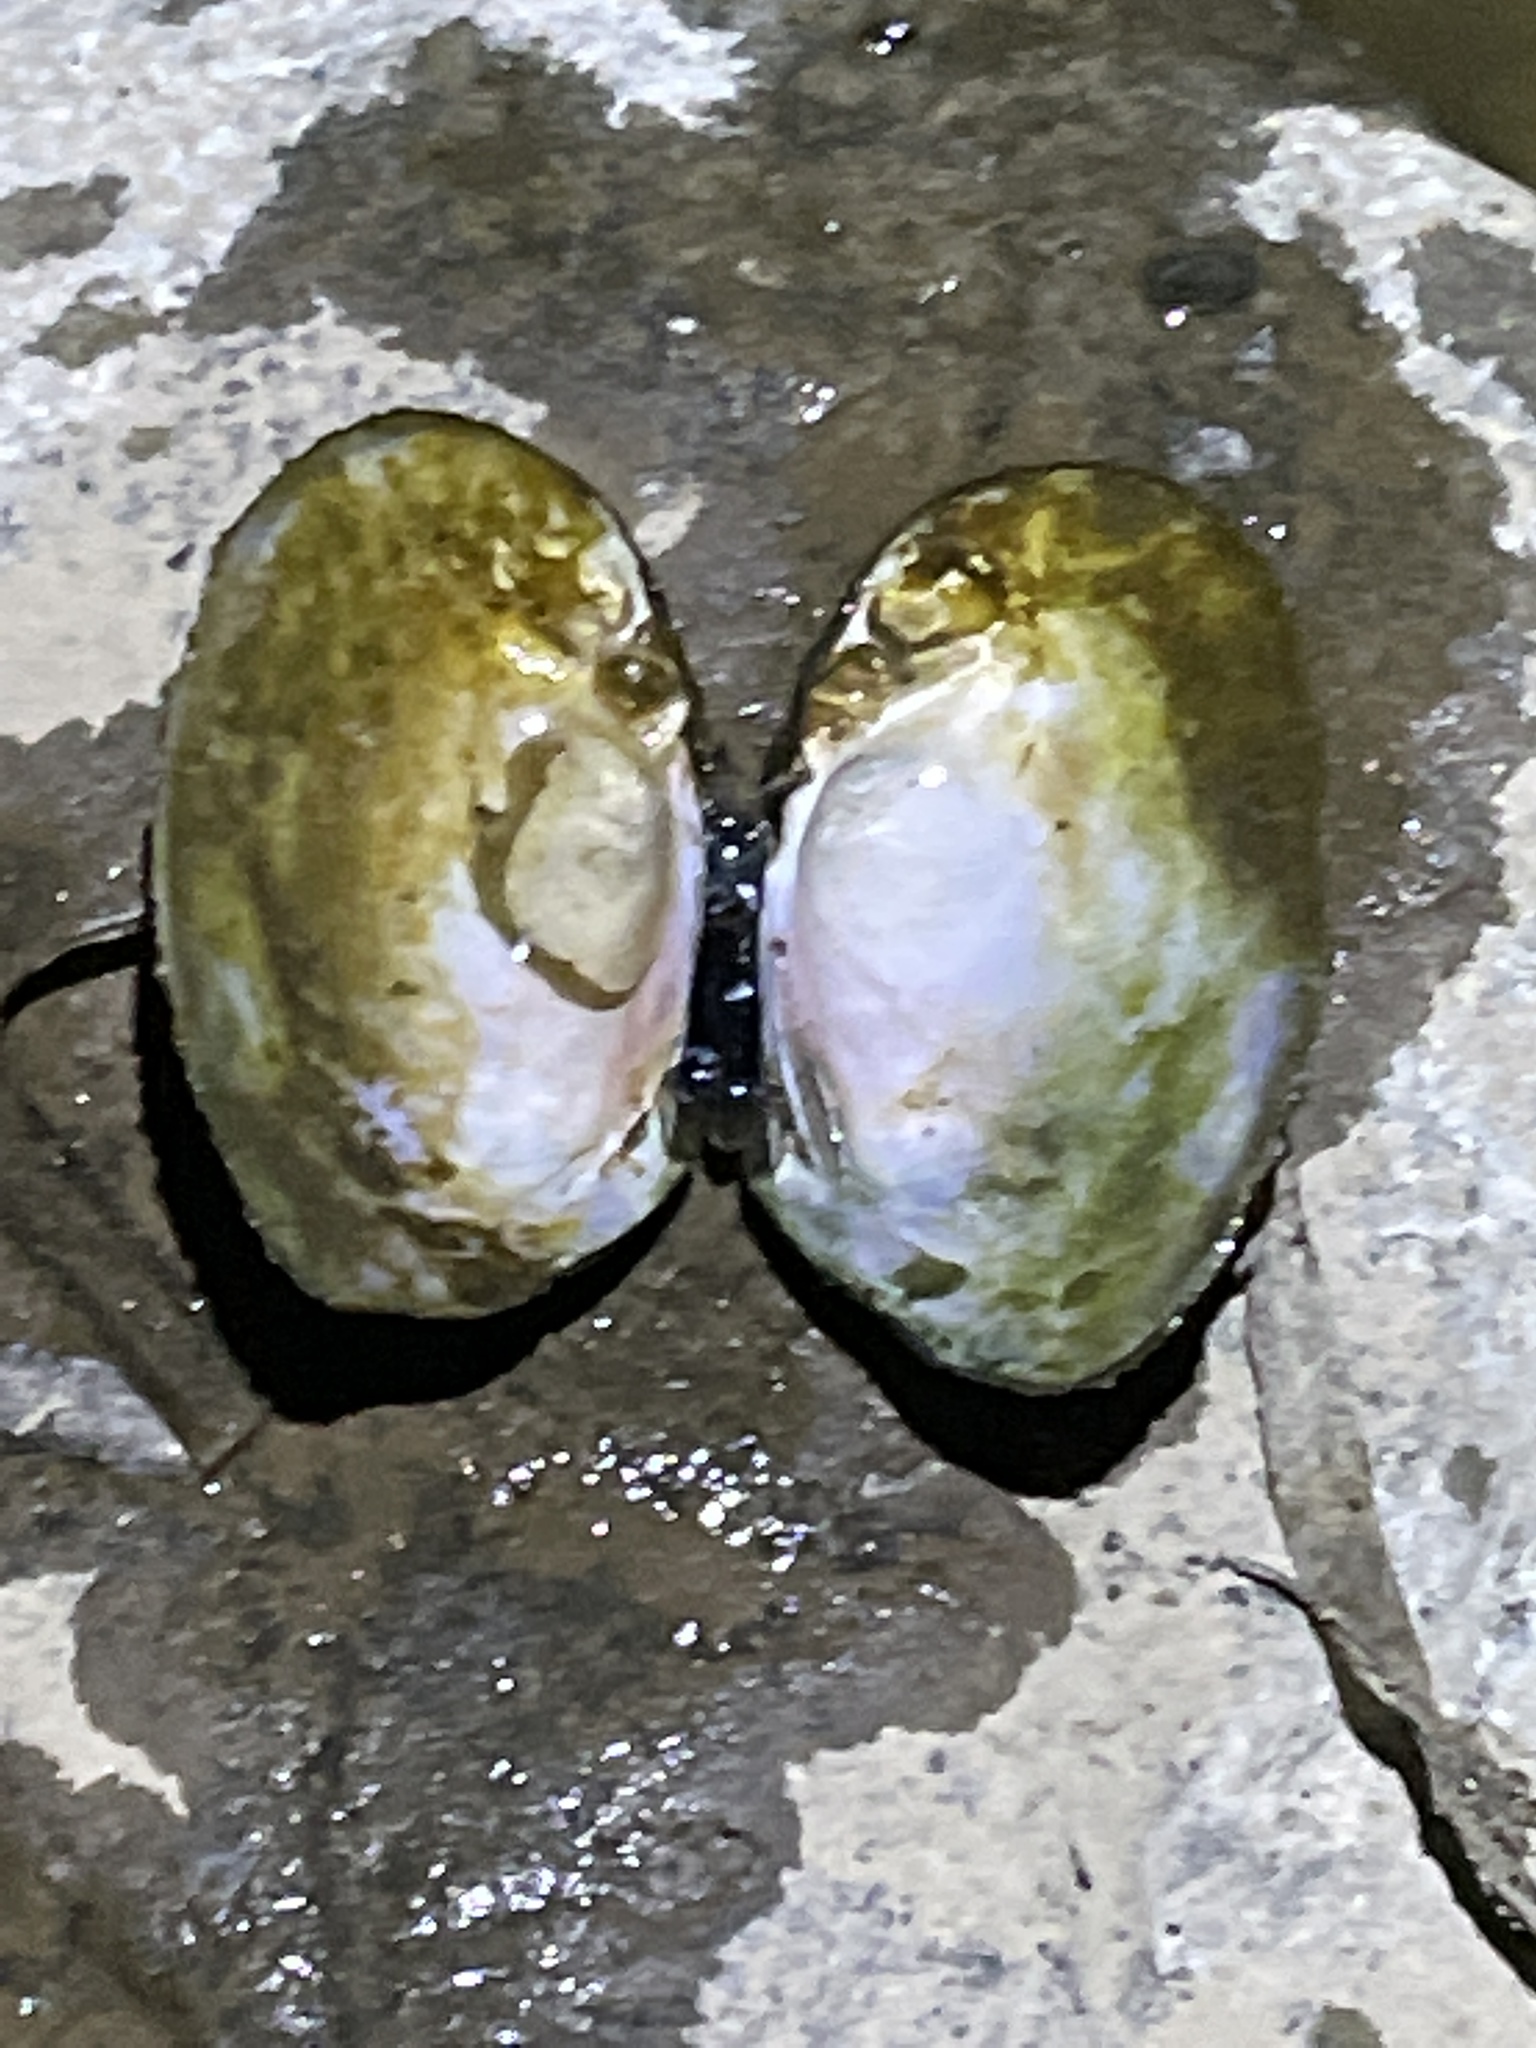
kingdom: Animalia
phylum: Mollusca
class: Bivalvia
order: Unionida
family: Unionidae
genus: Ortmanniana
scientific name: Ortmanniana ligamentina
